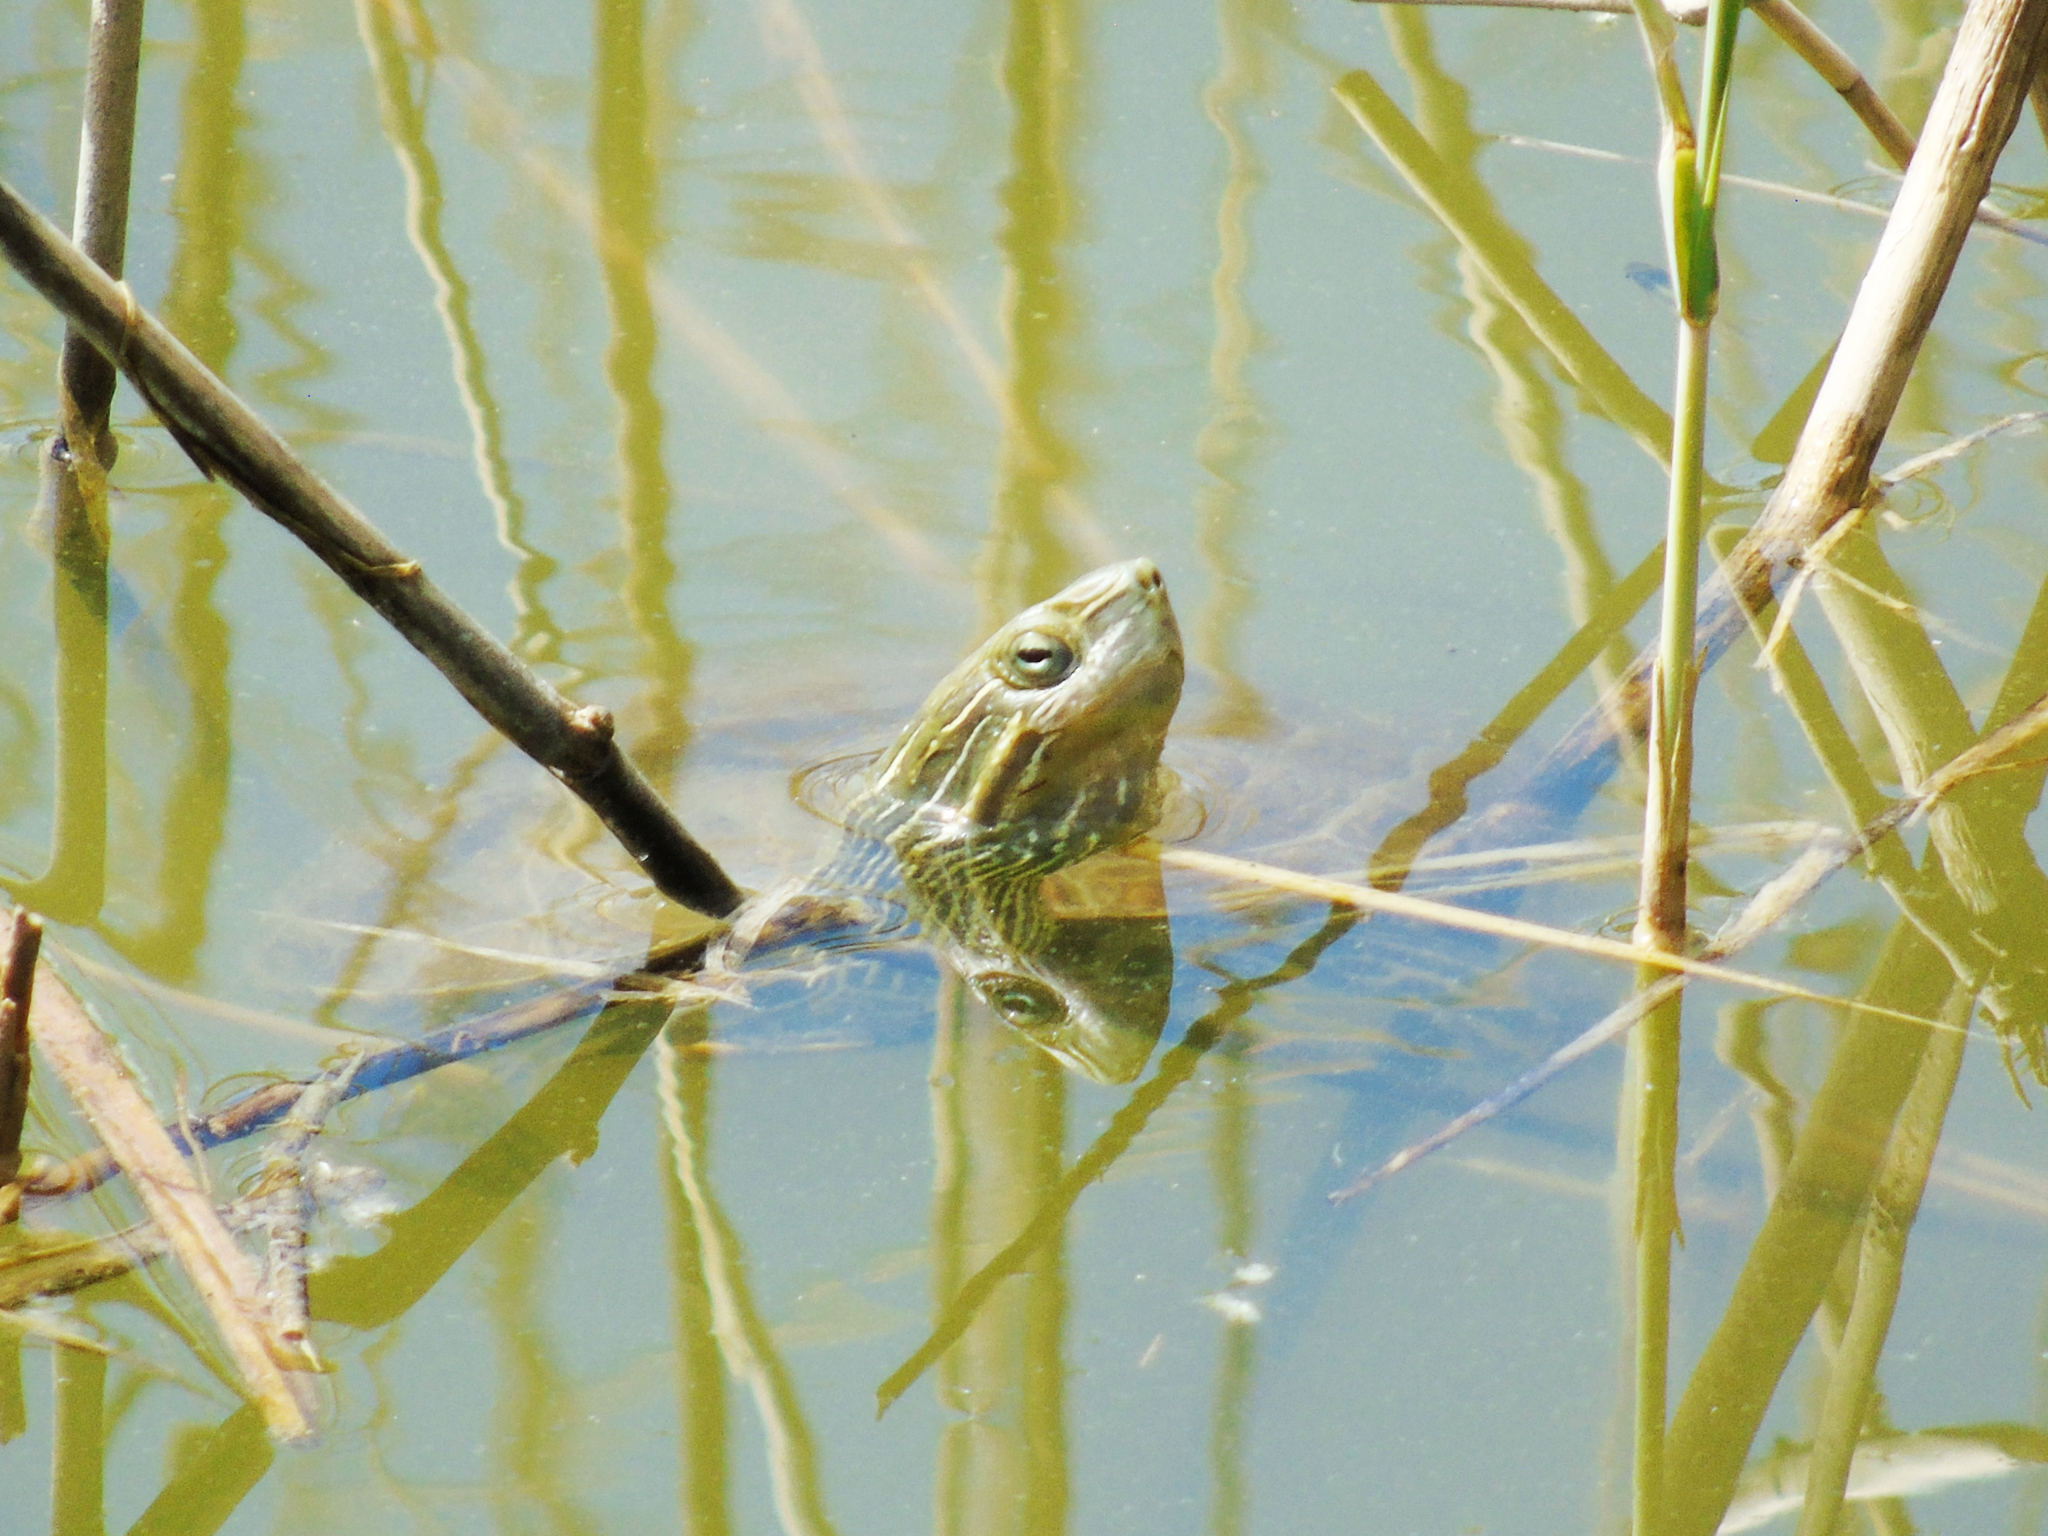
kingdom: Animalia
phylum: Chordata
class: Testudines
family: Geoemydidae
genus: Mauremys
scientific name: Mauremys caspica
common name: Caspian turtle
